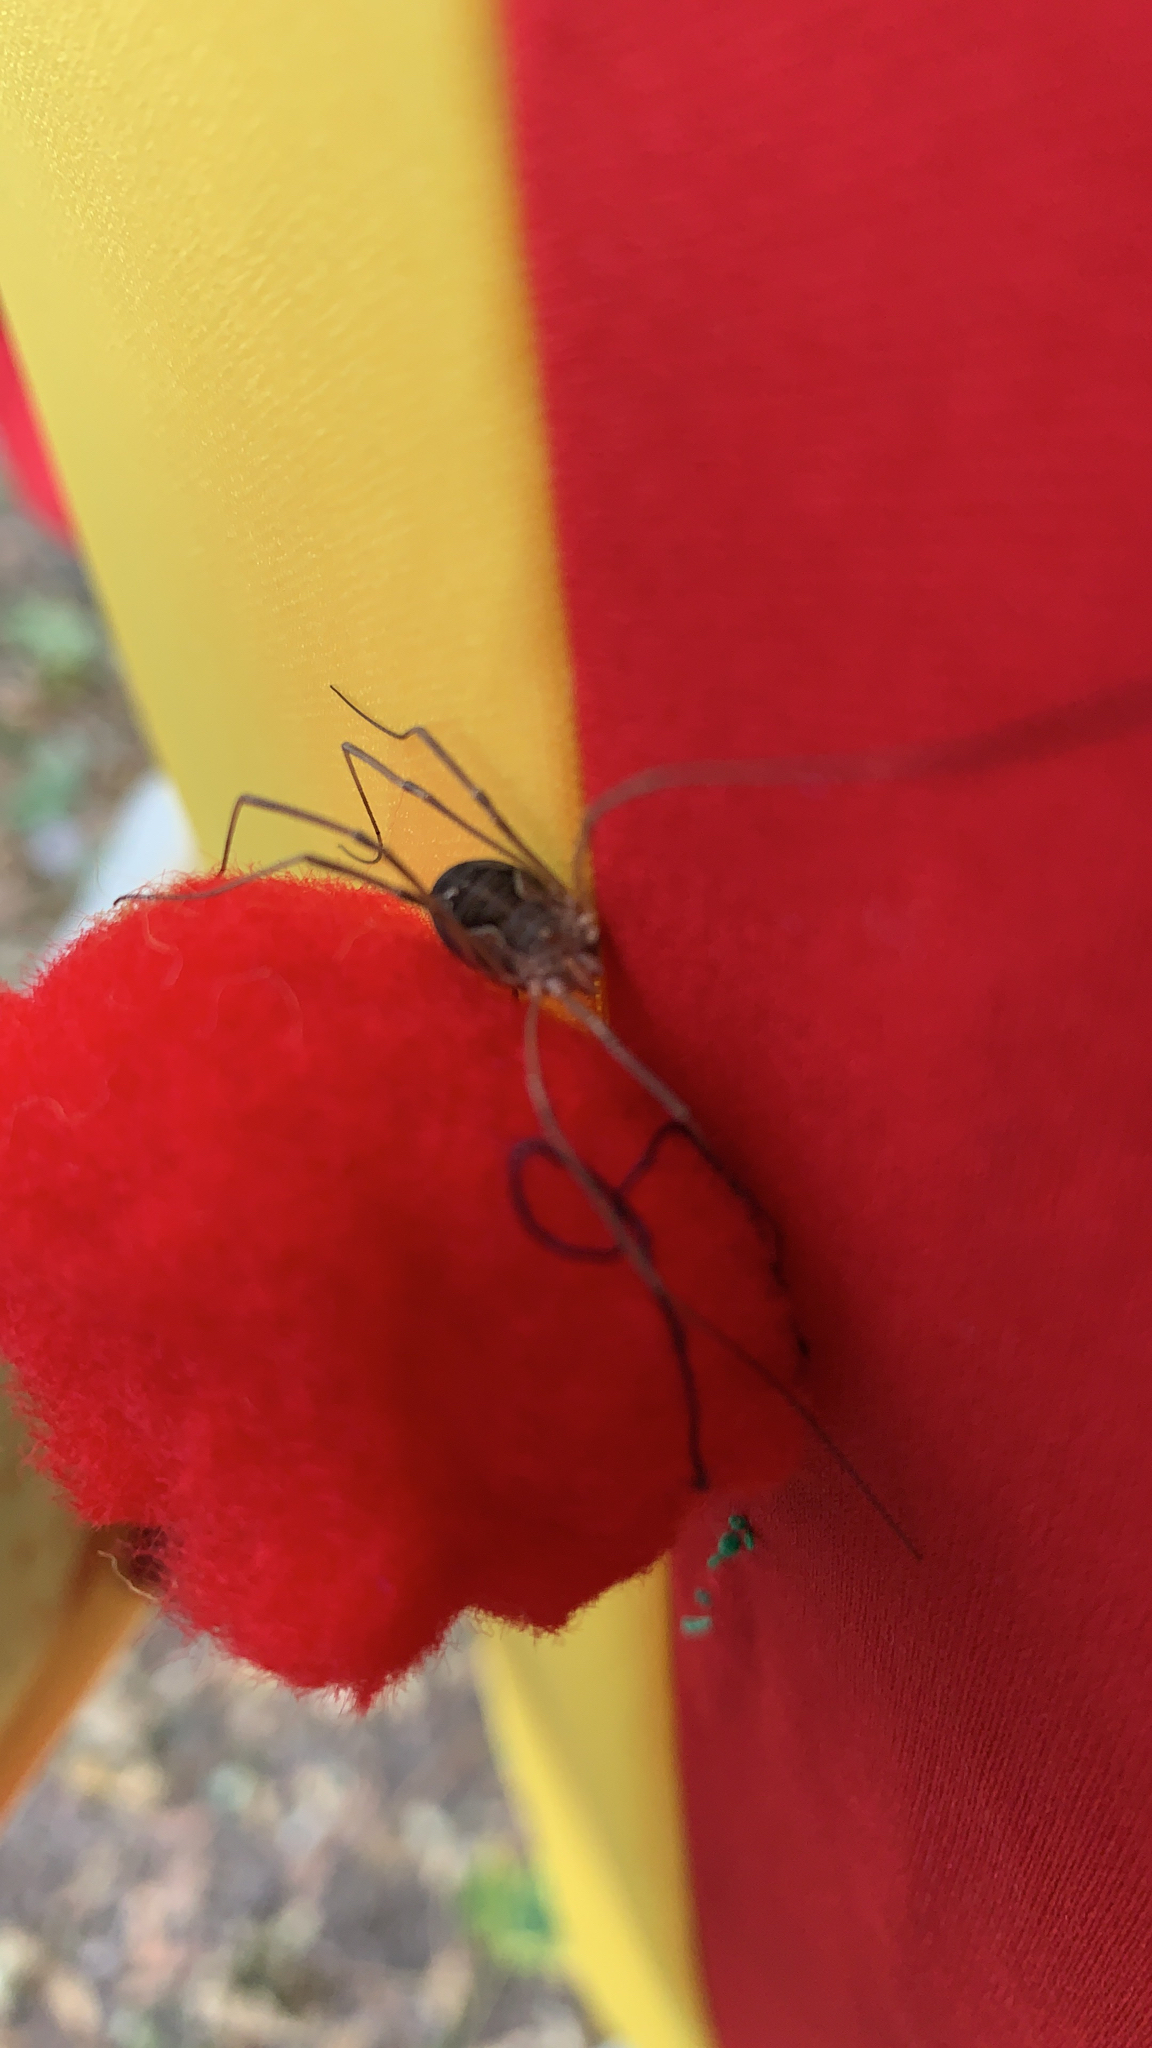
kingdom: Animalia
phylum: Arthropoda
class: Arachnida
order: Opiliones
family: Phalangiidae
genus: Phalangium
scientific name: Phalangium opilio
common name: Daddy longleg
